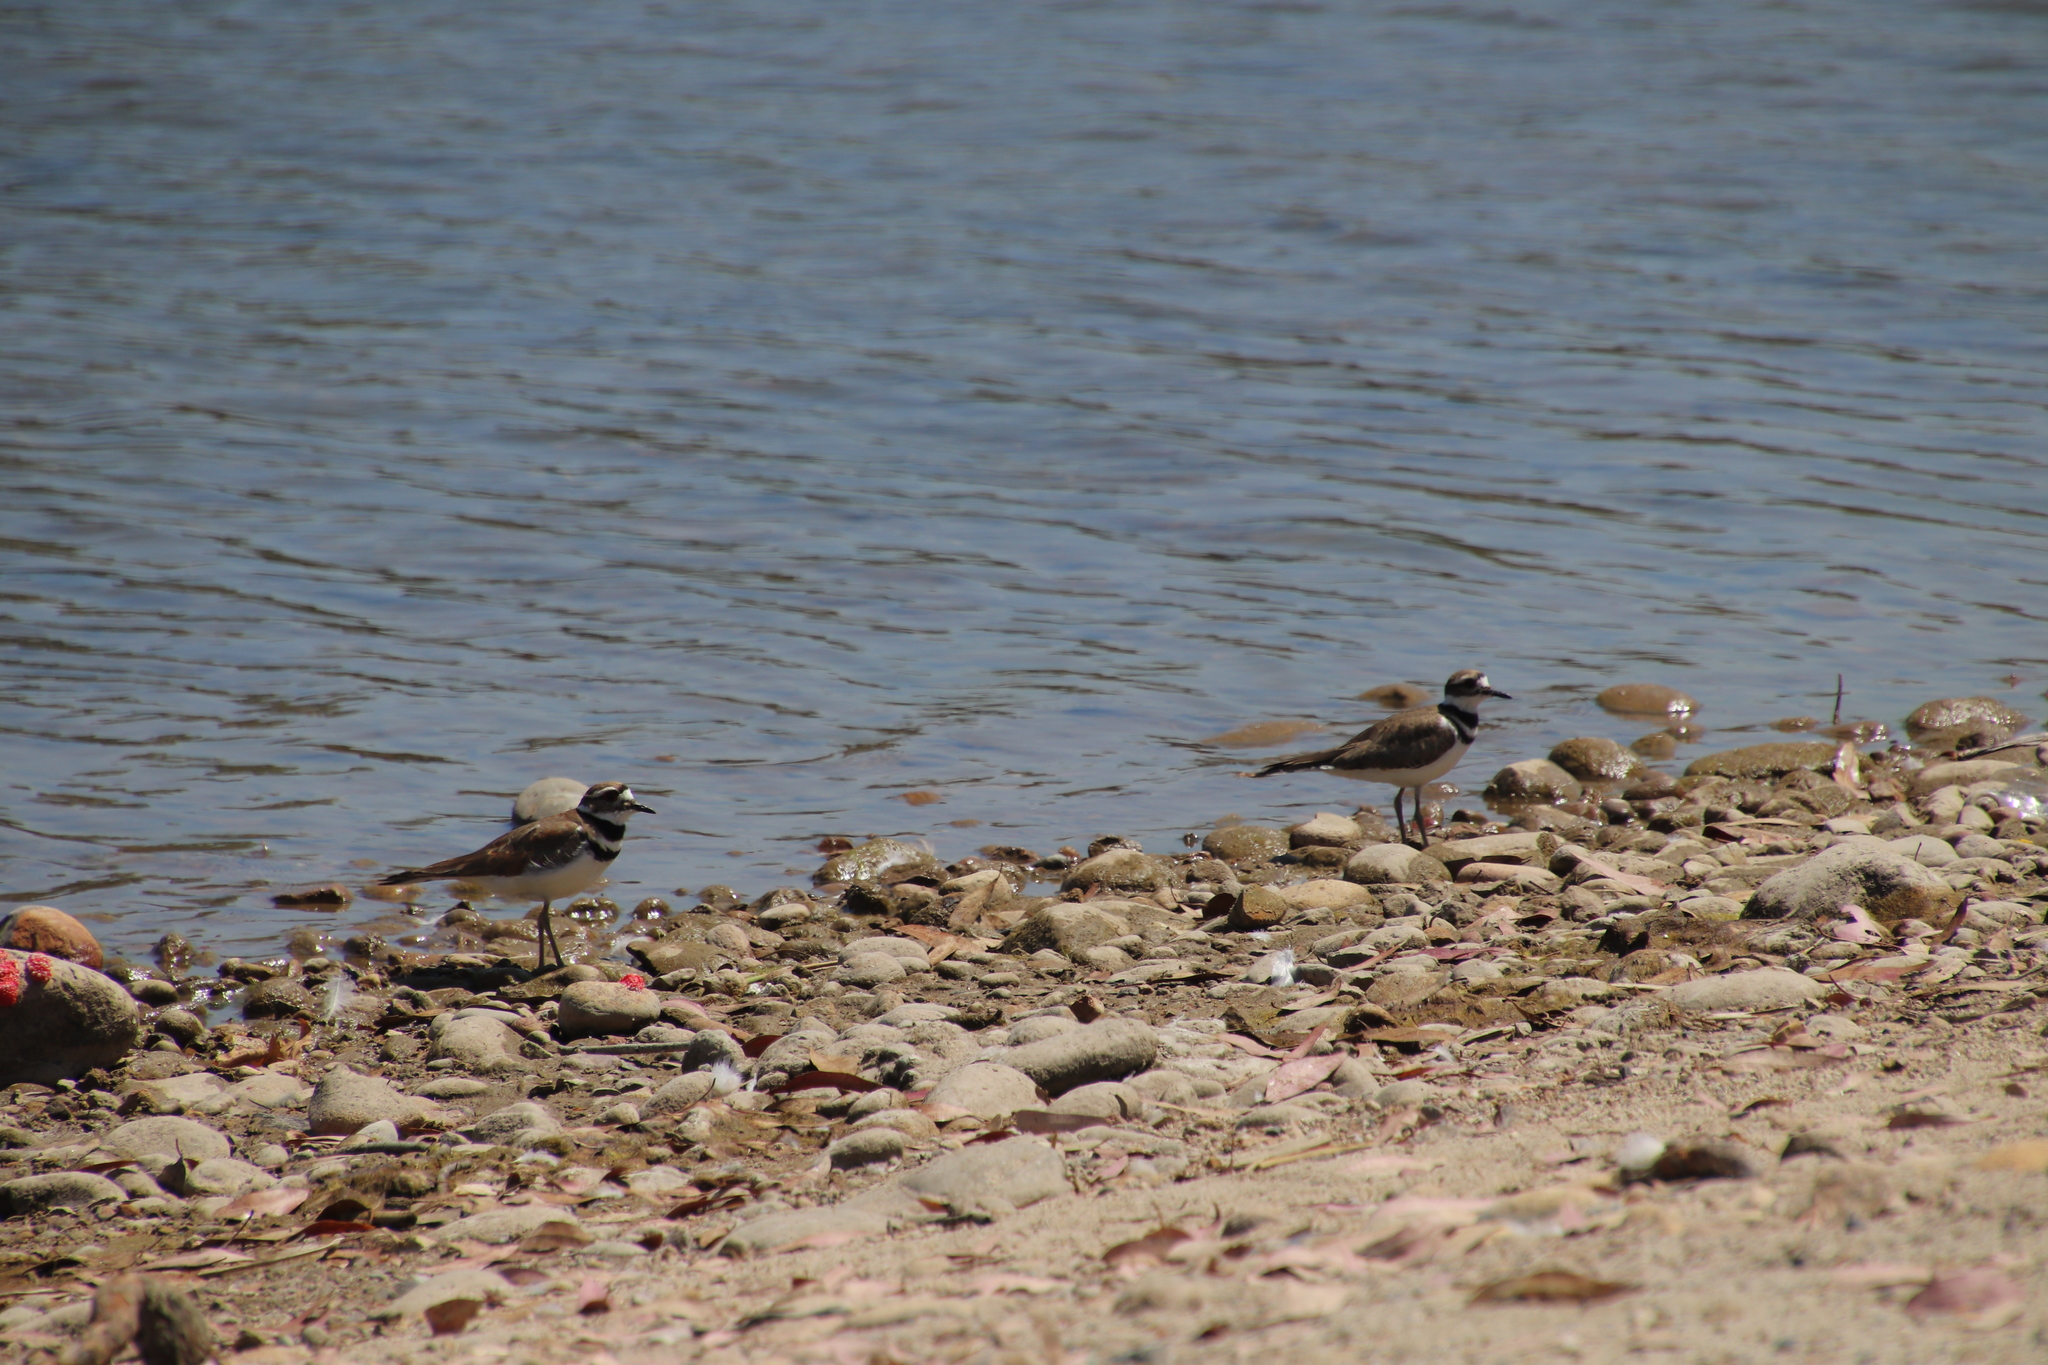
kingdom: Animalia
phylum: Chordata
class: Aves
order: Charadriiformes
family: Charadriidae
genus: Charadrius
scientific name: Charadrius vociferus
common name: Killdeer
